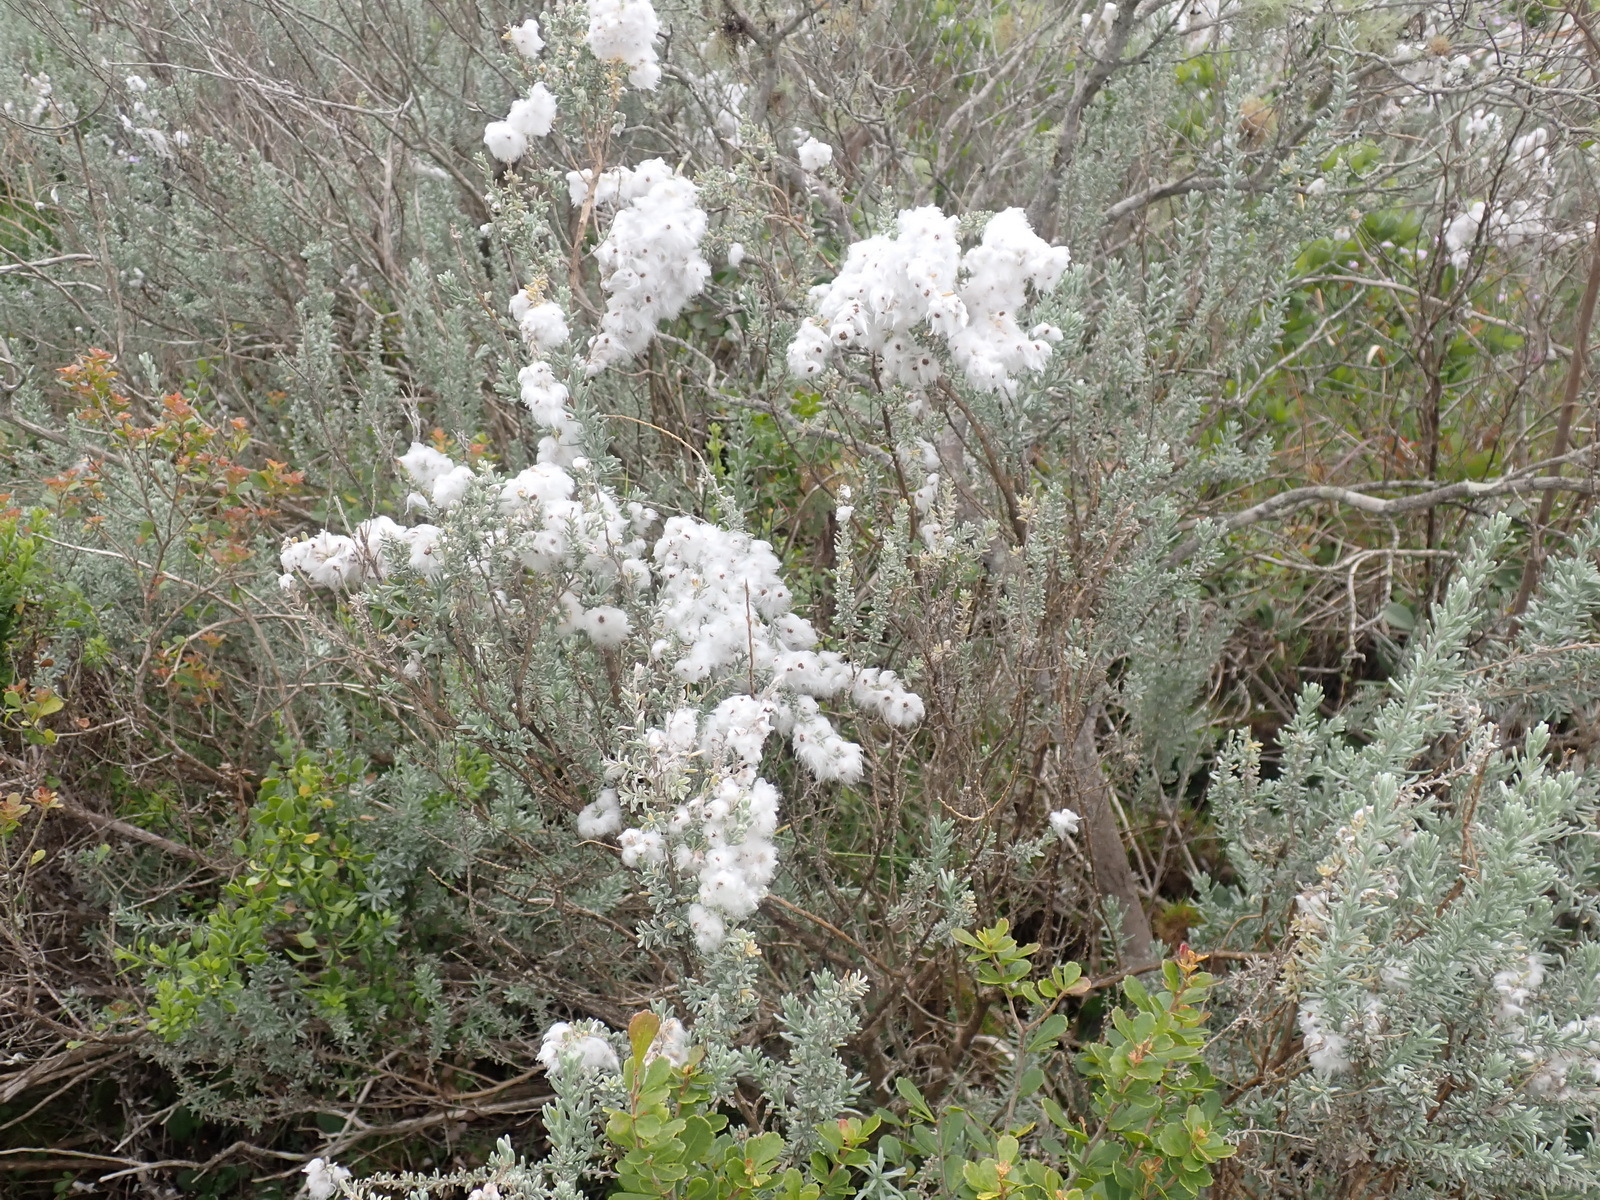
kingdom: Plantae
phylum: Tracheophyta
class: Magnoliopsida
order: Asterales
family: Asteraceae
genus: Eriocephalus
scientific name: Eriocephalus racemosus
